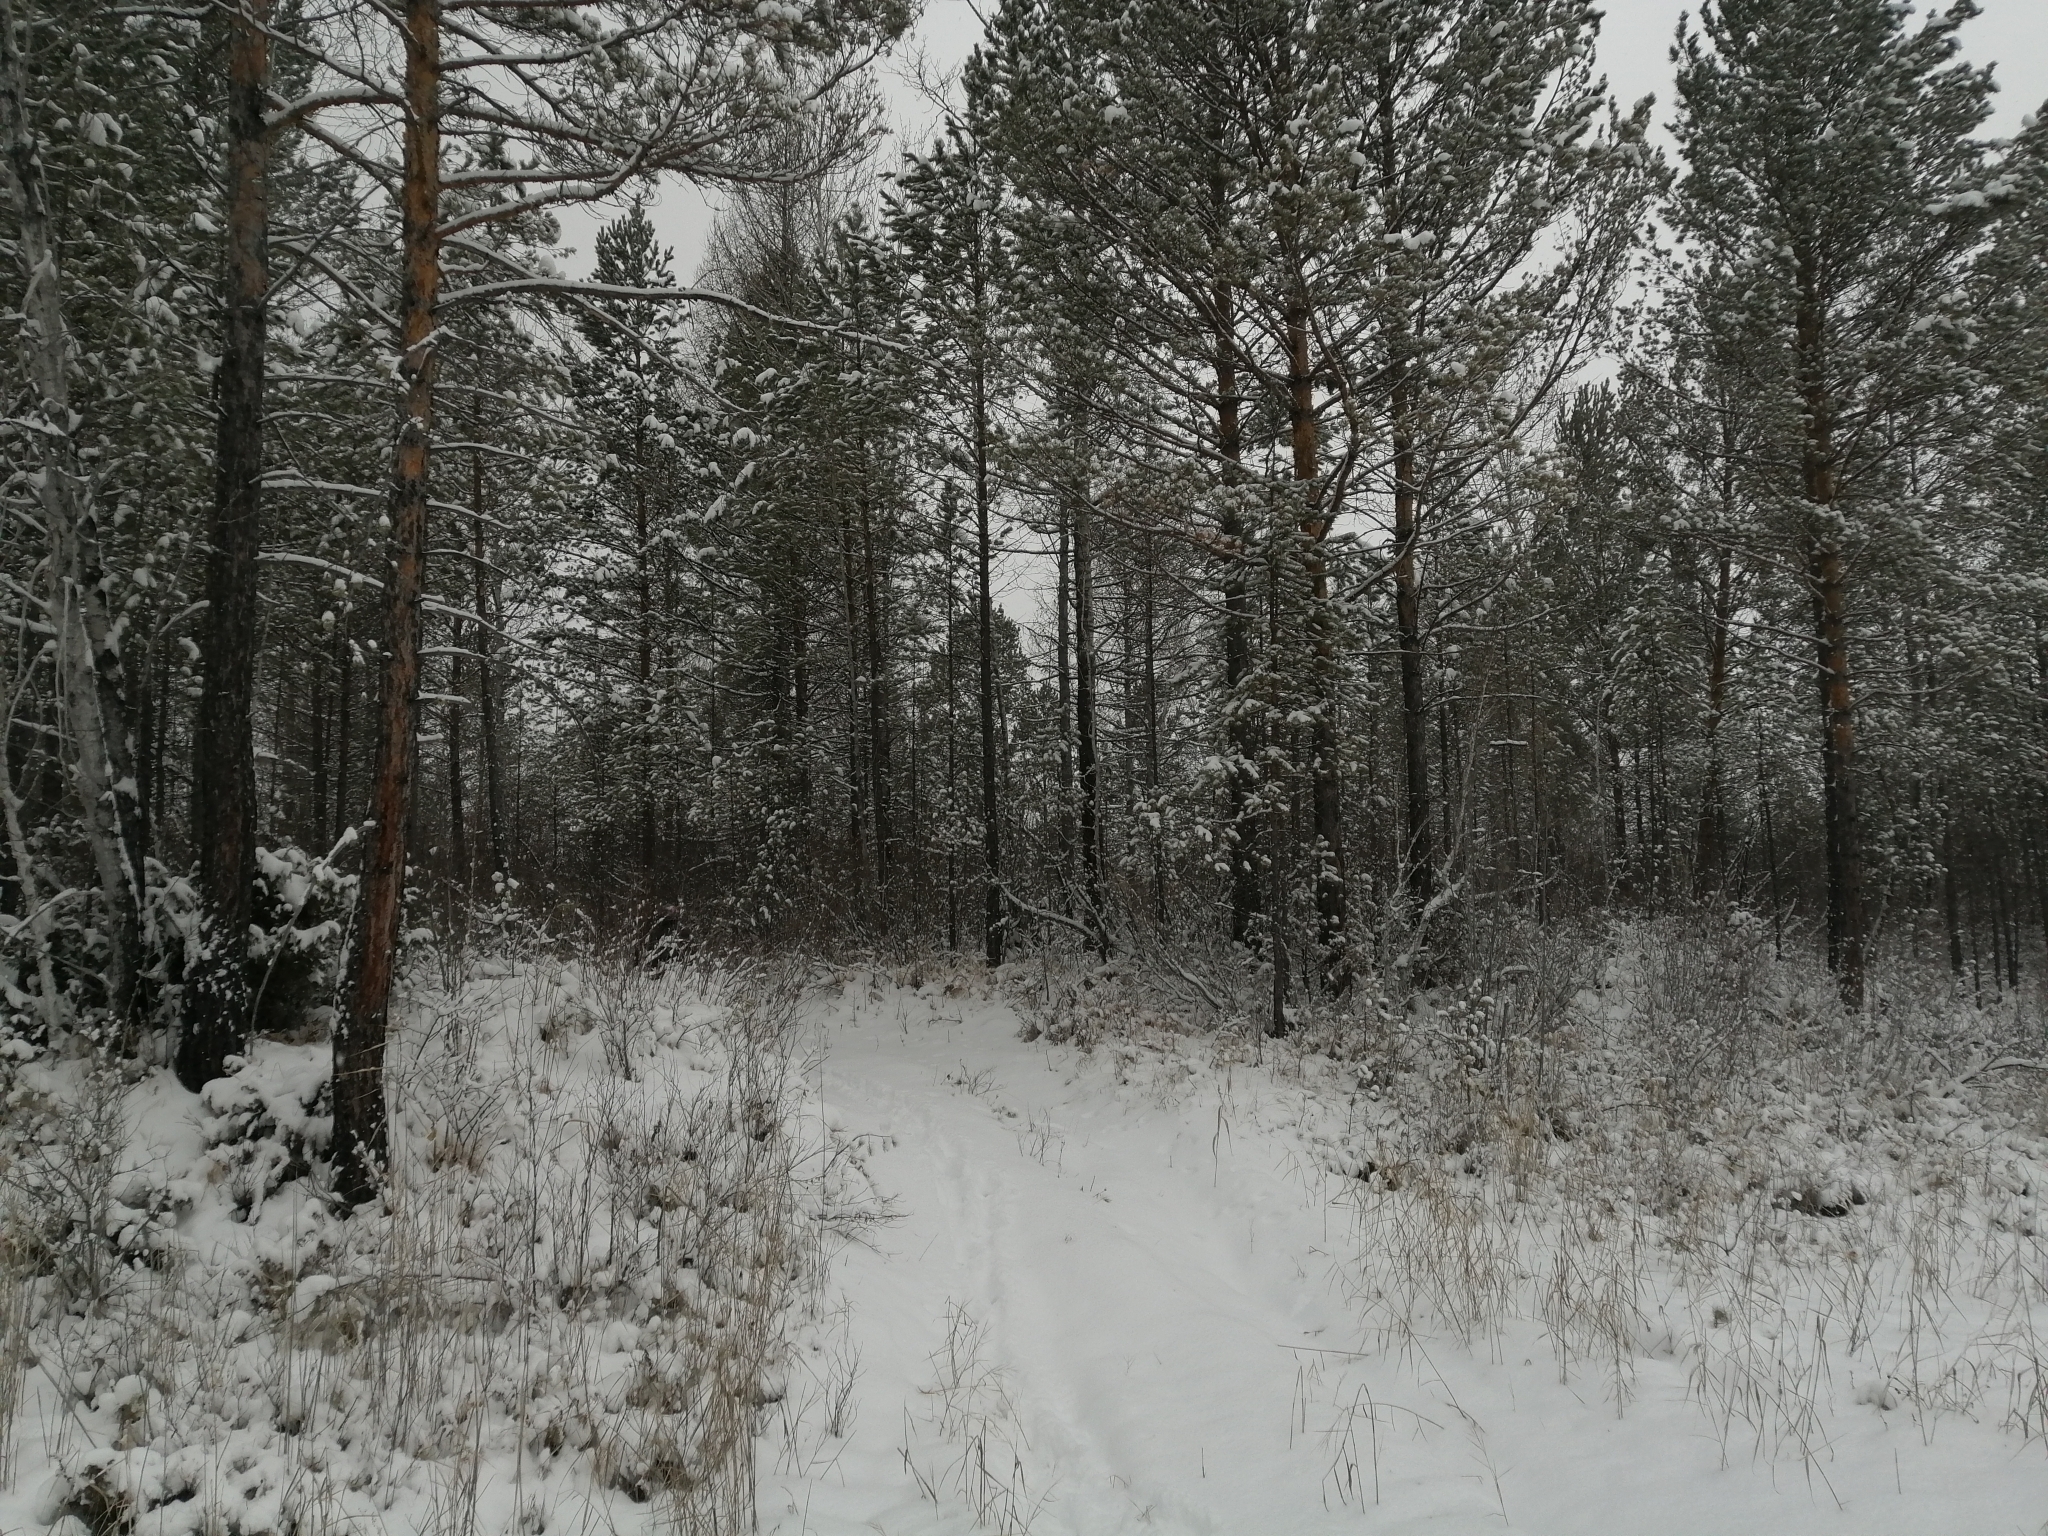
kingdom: Plantae
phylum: Tracheophyta
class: Pinopsida
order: Pinales
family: Pinaceae
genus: Pinus
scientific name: Pinus sylvestris
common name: Scots pine
